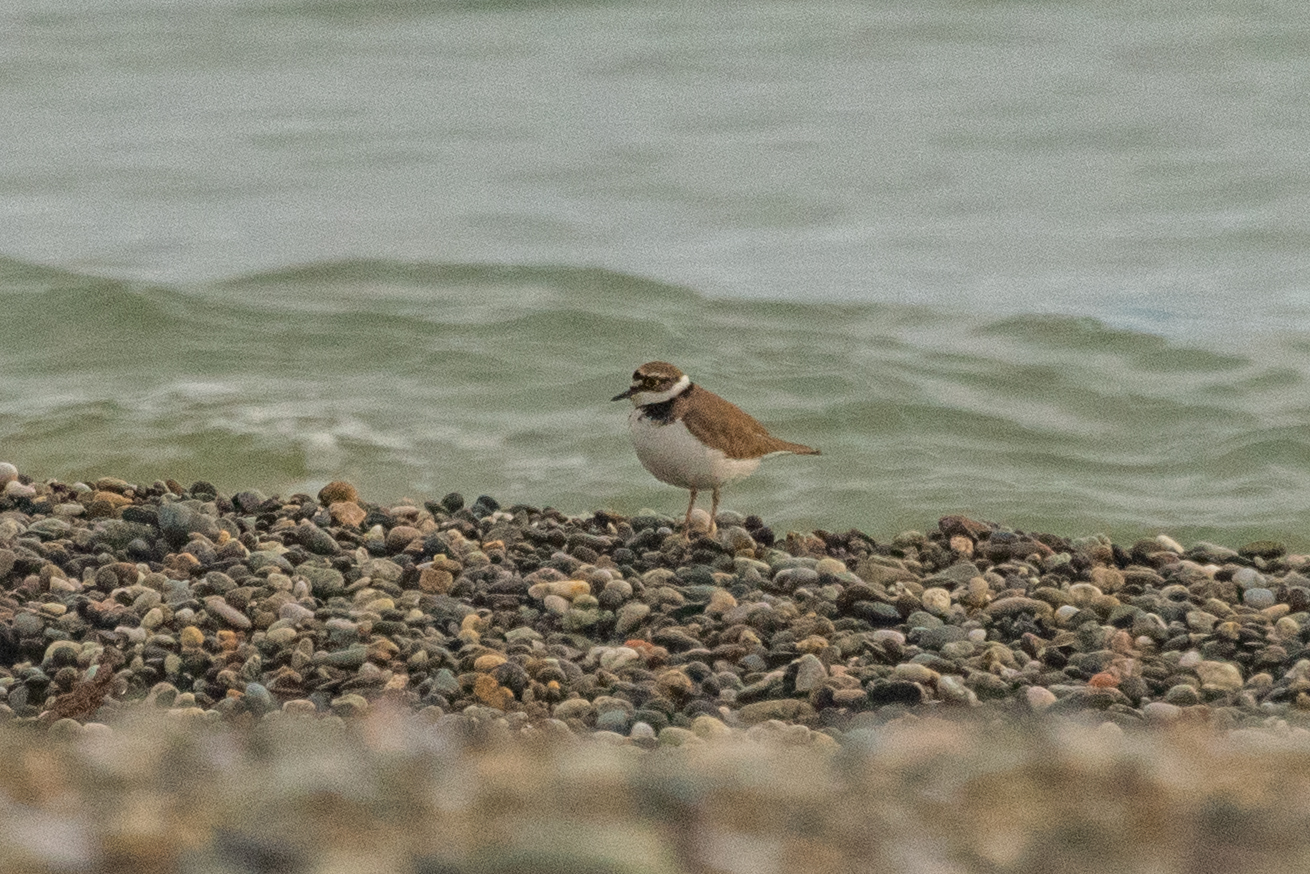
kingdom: Animalia
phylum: Chordata
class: Aves
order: Charadriiformes
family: Charadriidae
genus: Charadrius
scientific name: Charadrius dubius
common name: Little ringed plover
